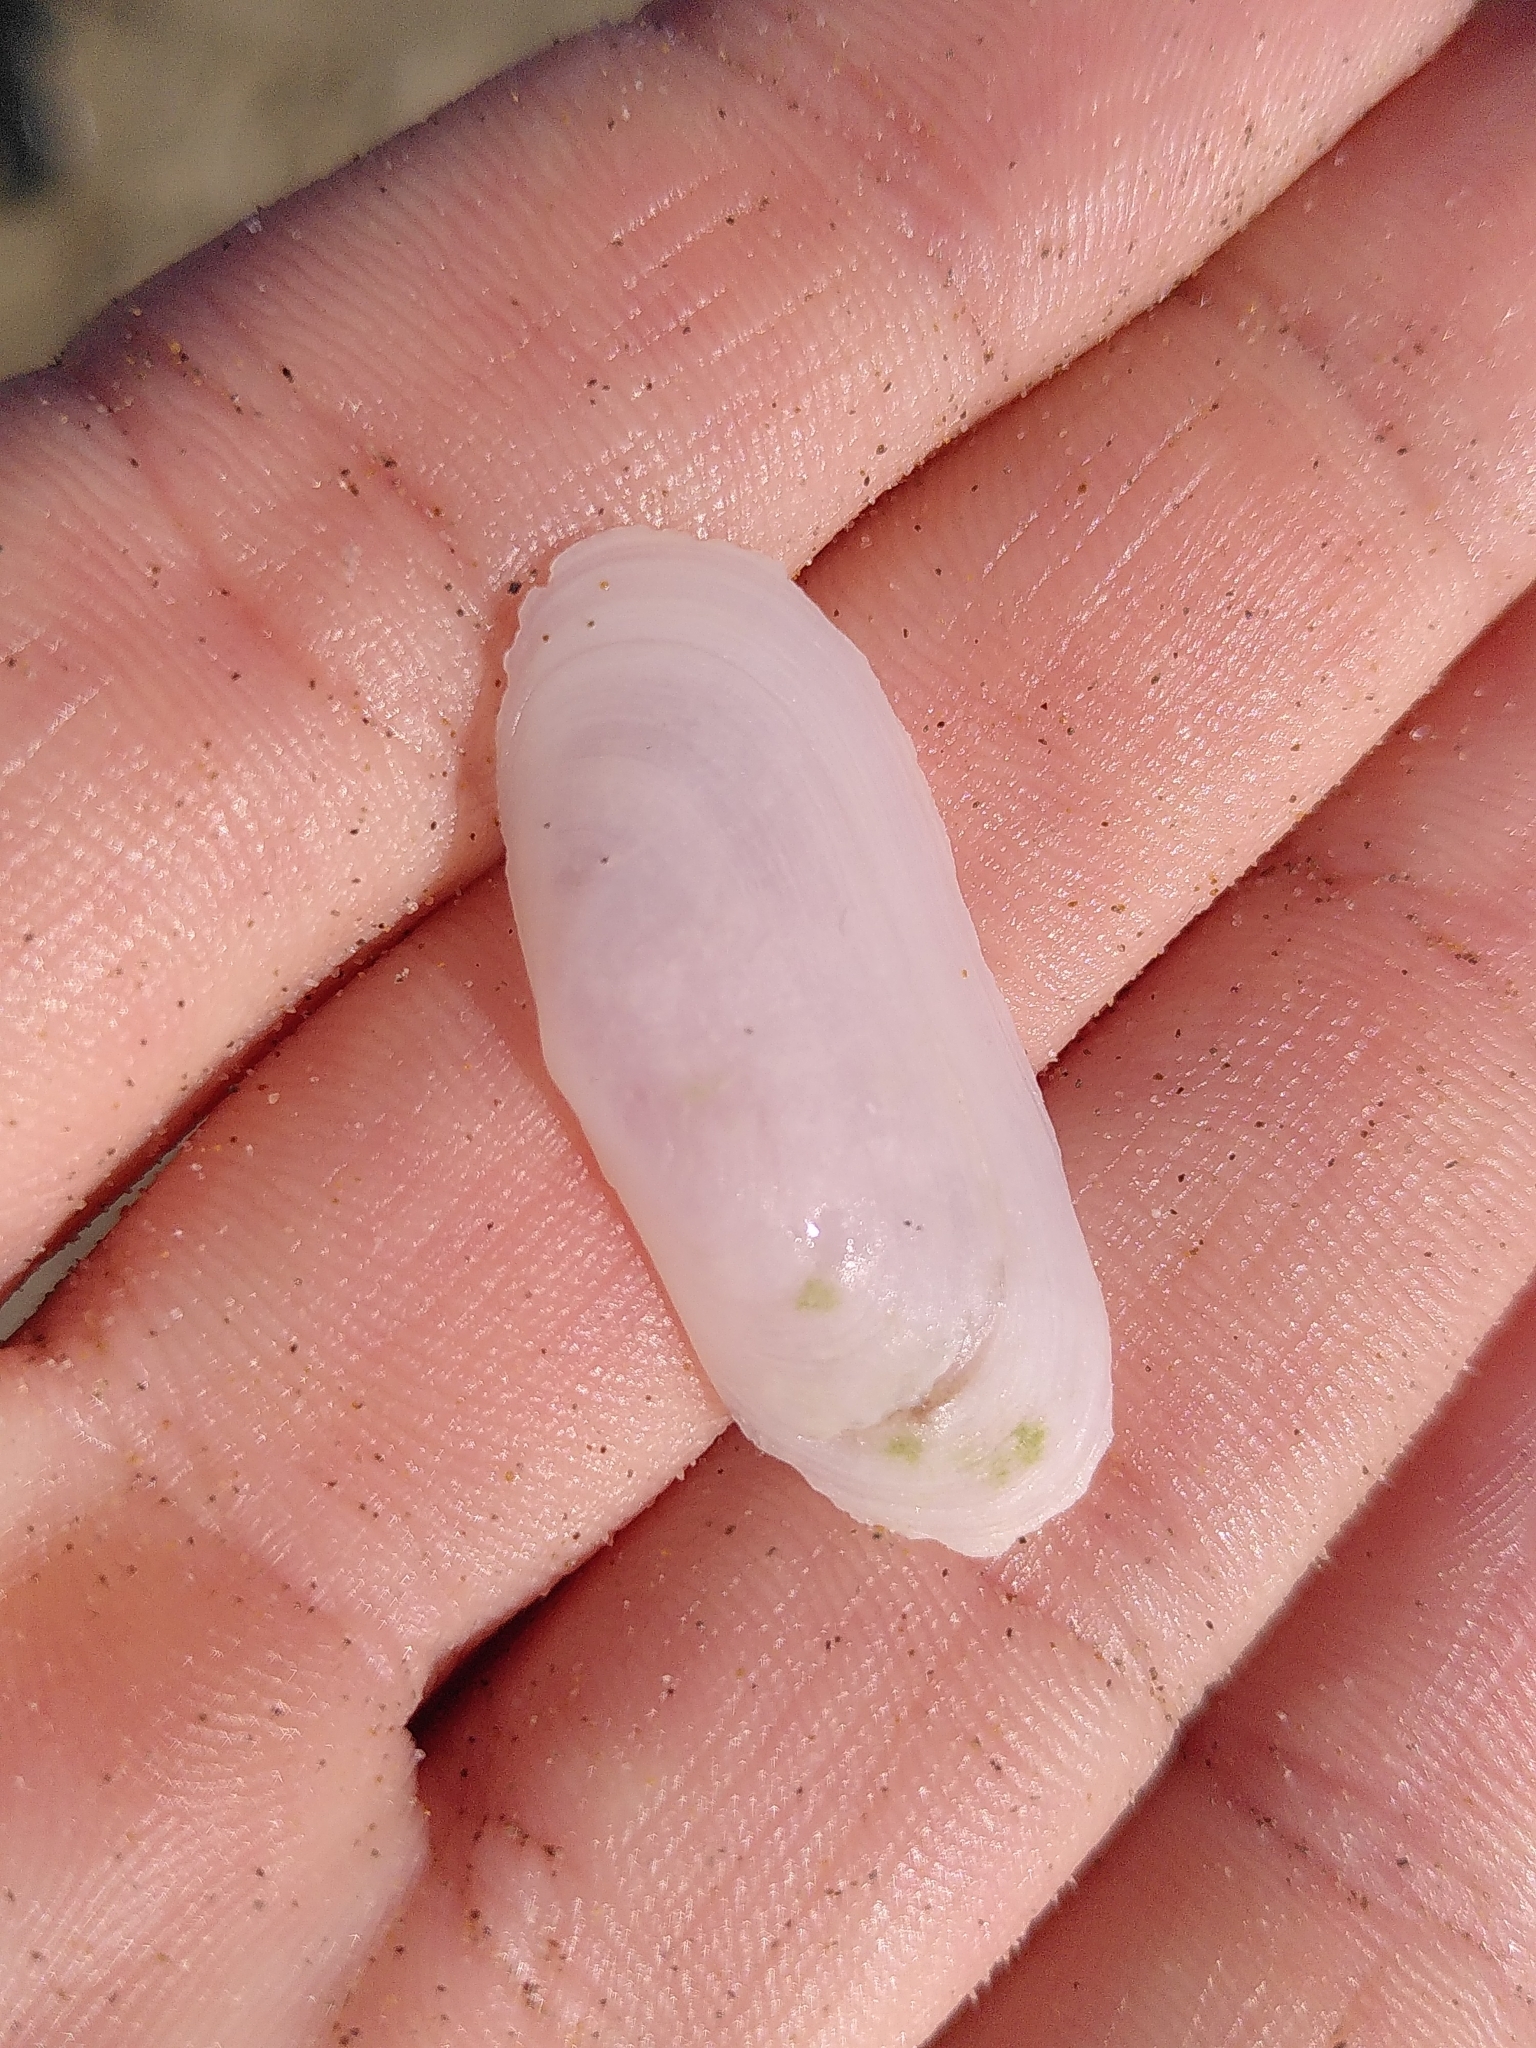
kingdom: Animalia
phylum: Mollusca
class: Bivalvia
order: Cardiida
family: Solecurtidae
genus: Azorinus
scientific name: Azorinus chamasolen
